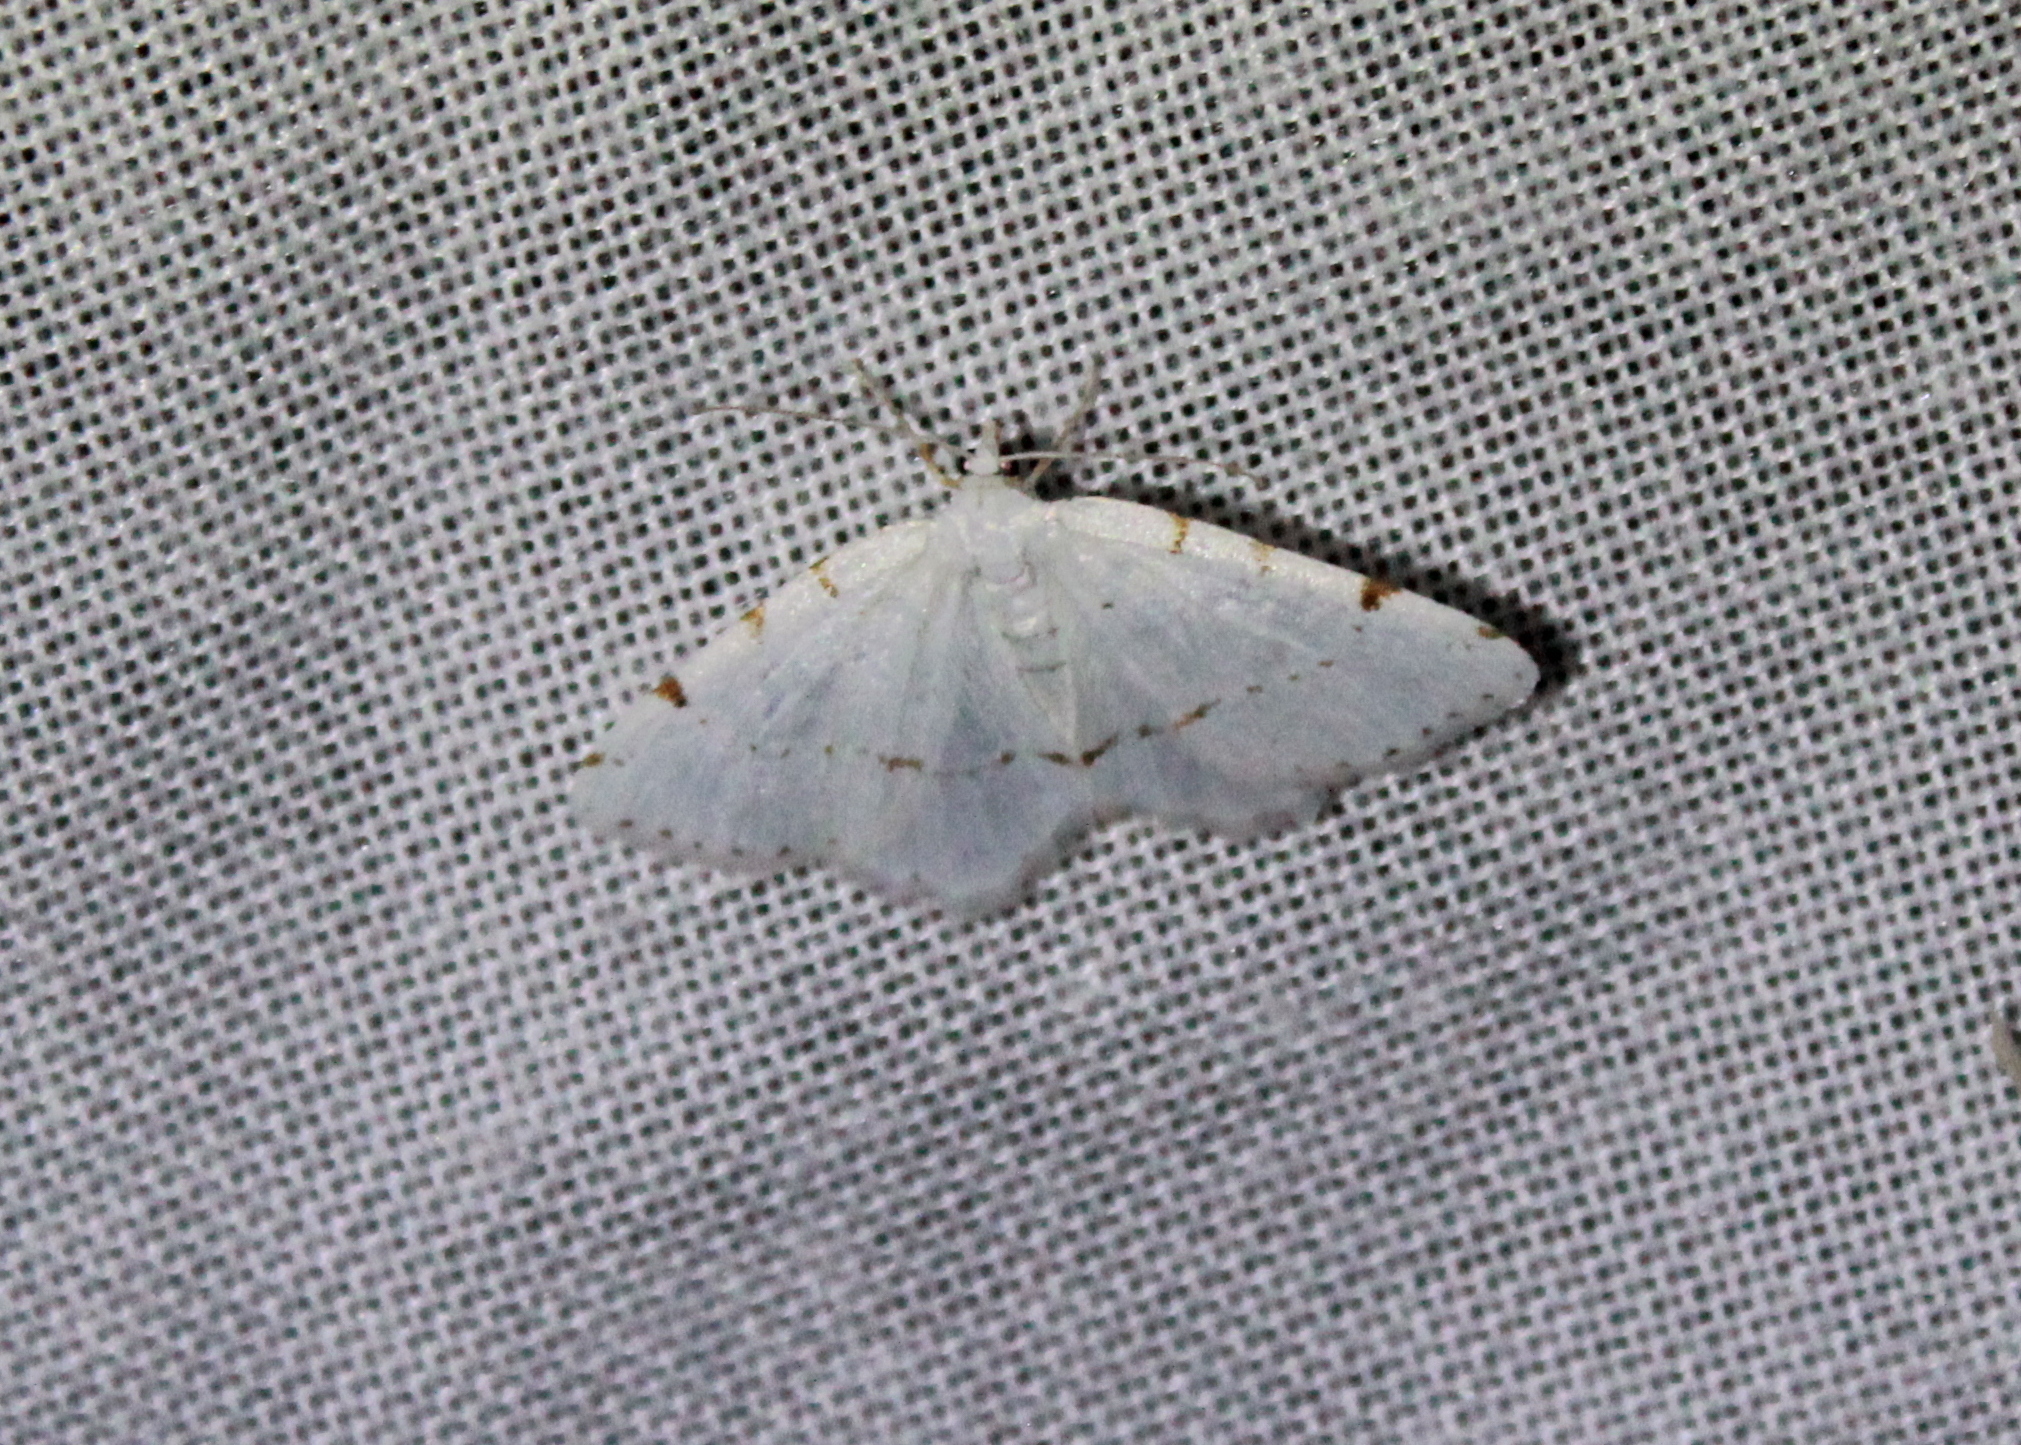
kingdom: Animalia
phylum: Arthropoda
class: Insecta
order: Lepidoptera
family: Geometridae
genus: Macaria
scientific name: Macaria pustularia
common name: Lesser maple spanworm moth
